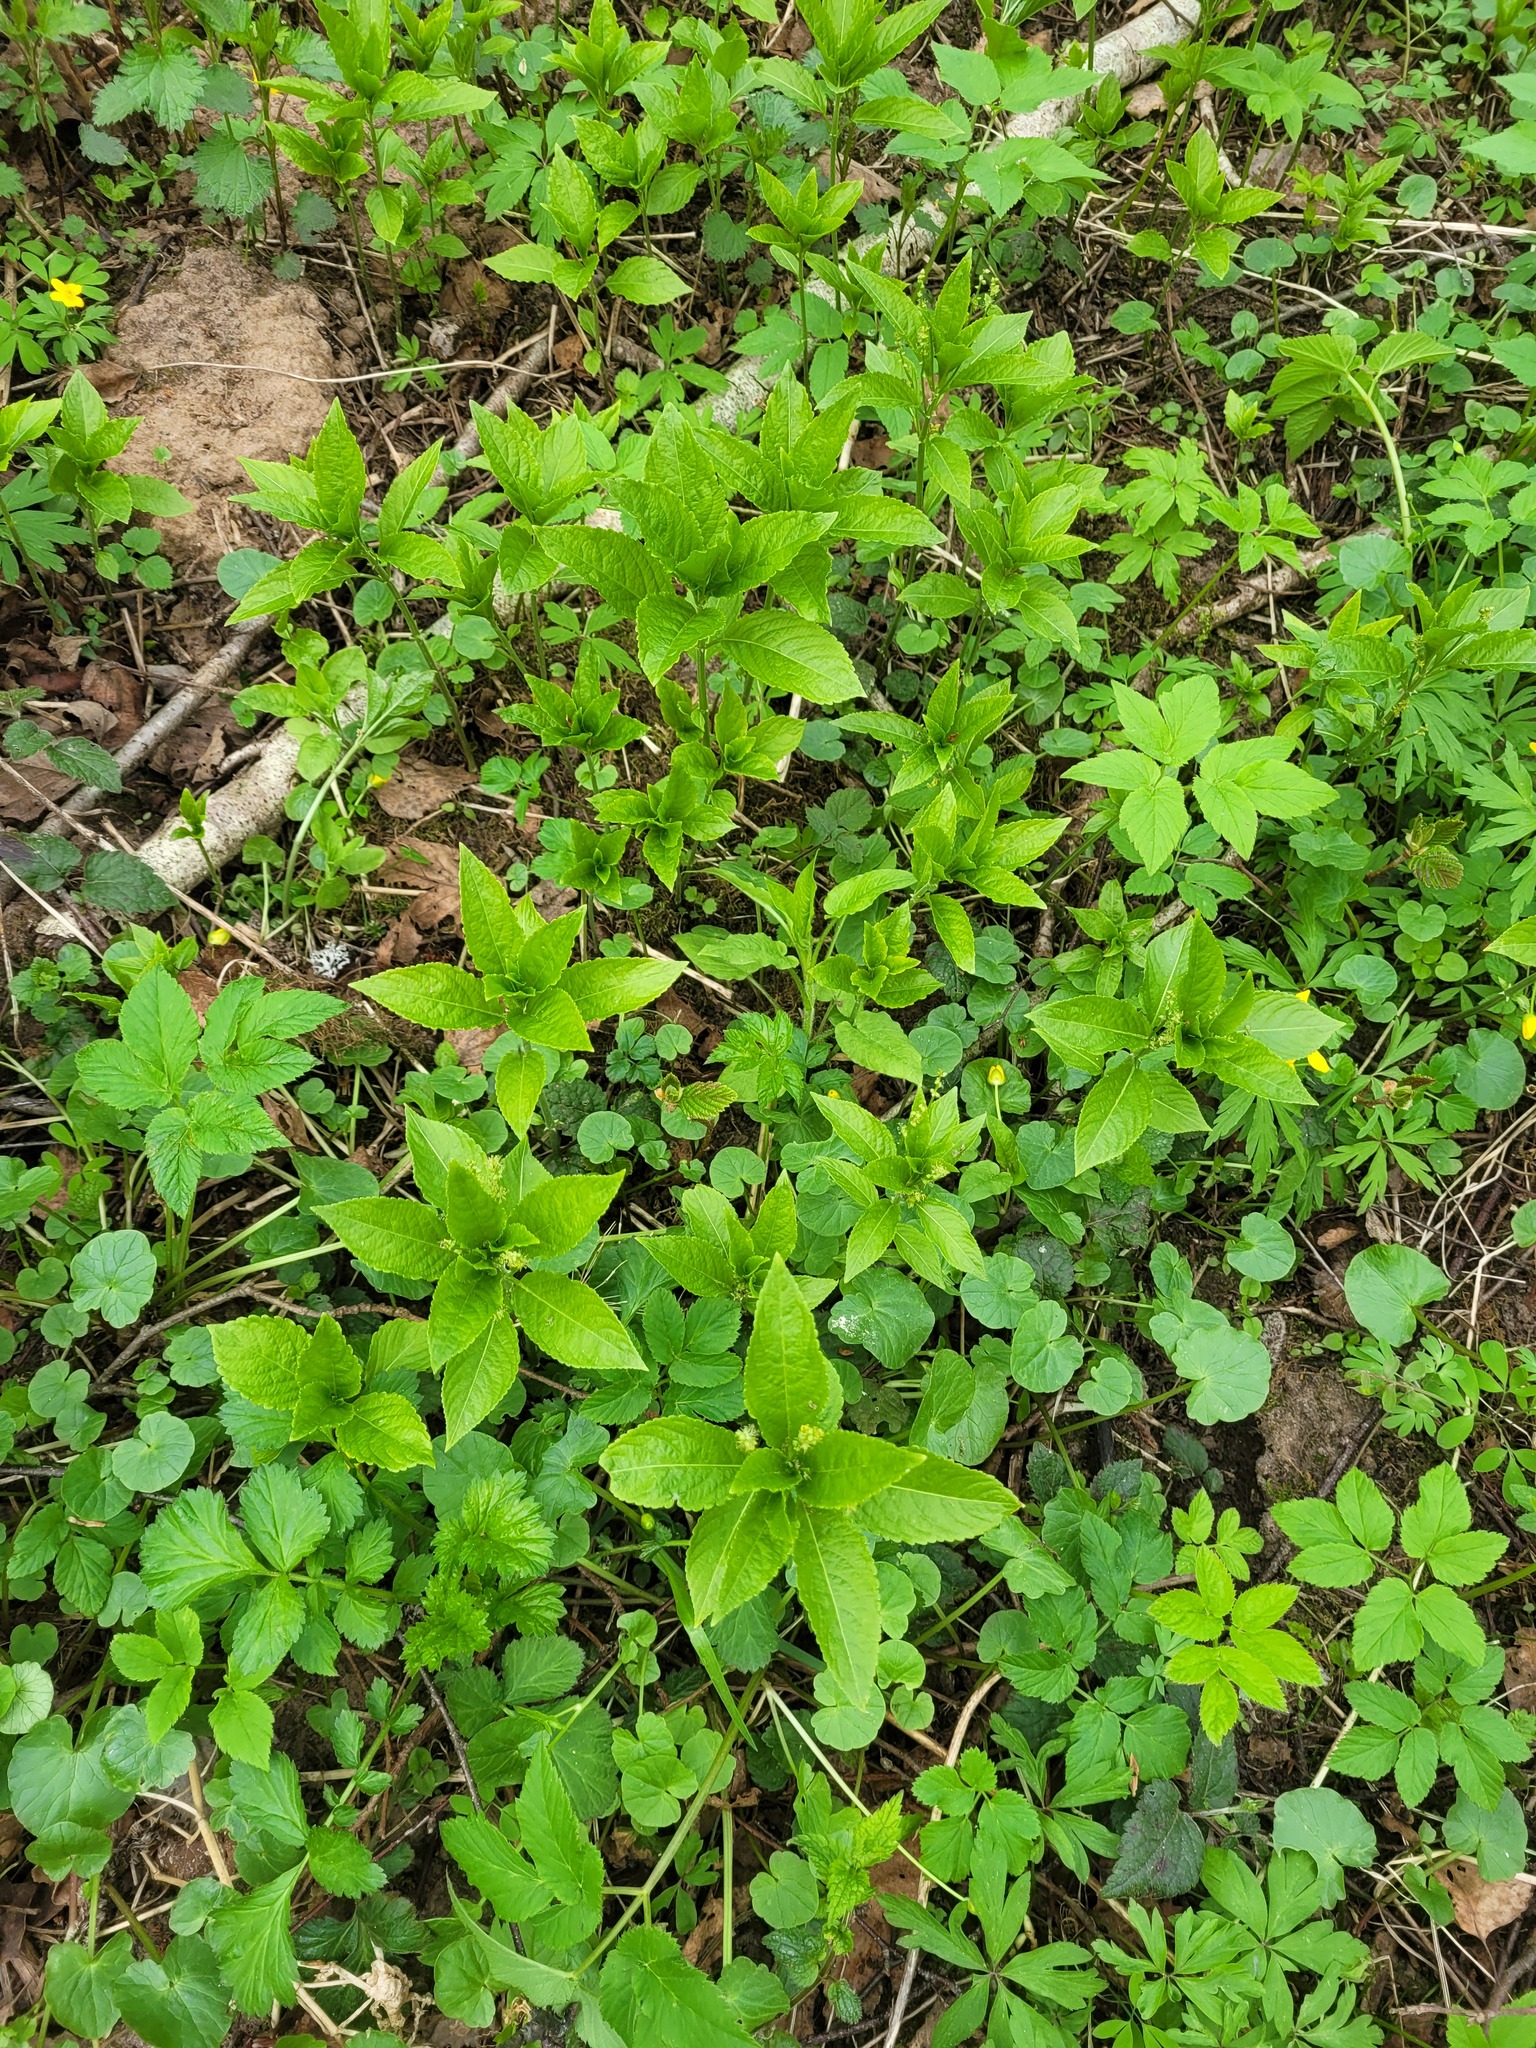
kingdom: Plantae
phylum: Tracheophyta
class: Magnoliopsida
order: Malpighiales
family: Euphorbiaceae
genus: Mercurialis
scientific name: Mercurialis perennis
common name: Dog mercury
